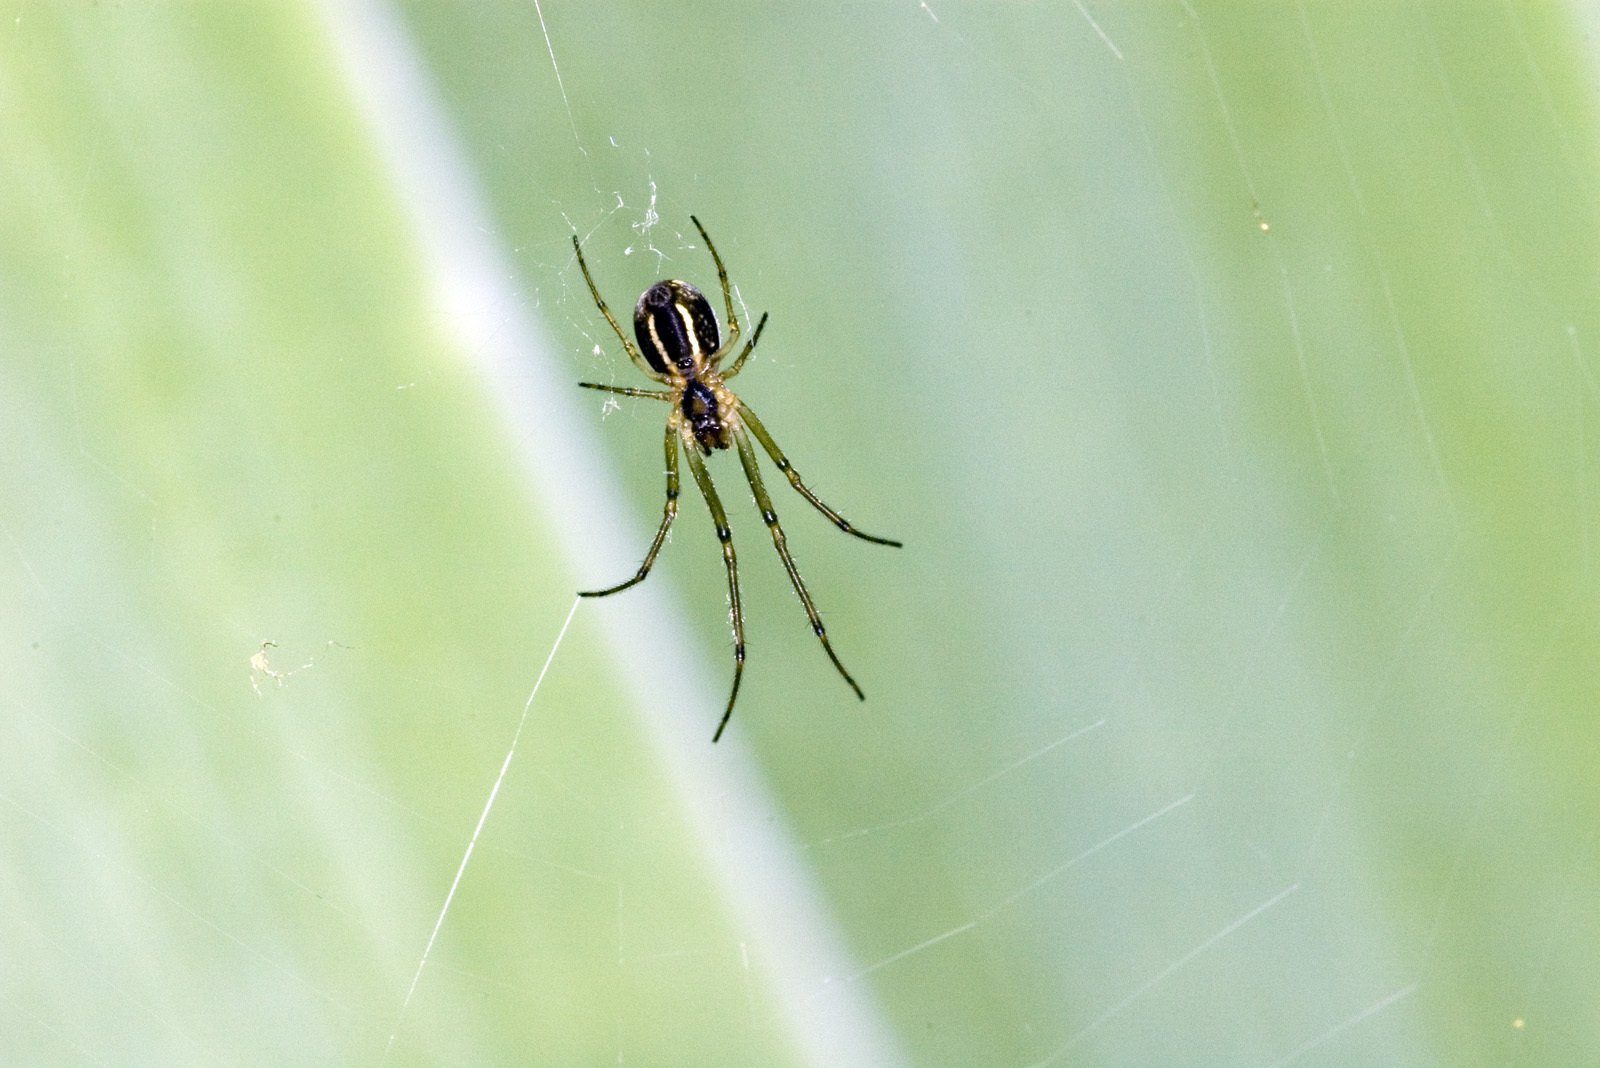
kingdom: Animalia
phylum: Arthropoda
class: Arachnida
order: Araneae
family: Tetragnathidae
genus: Leucauge
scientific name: Leucauge dromedaria
